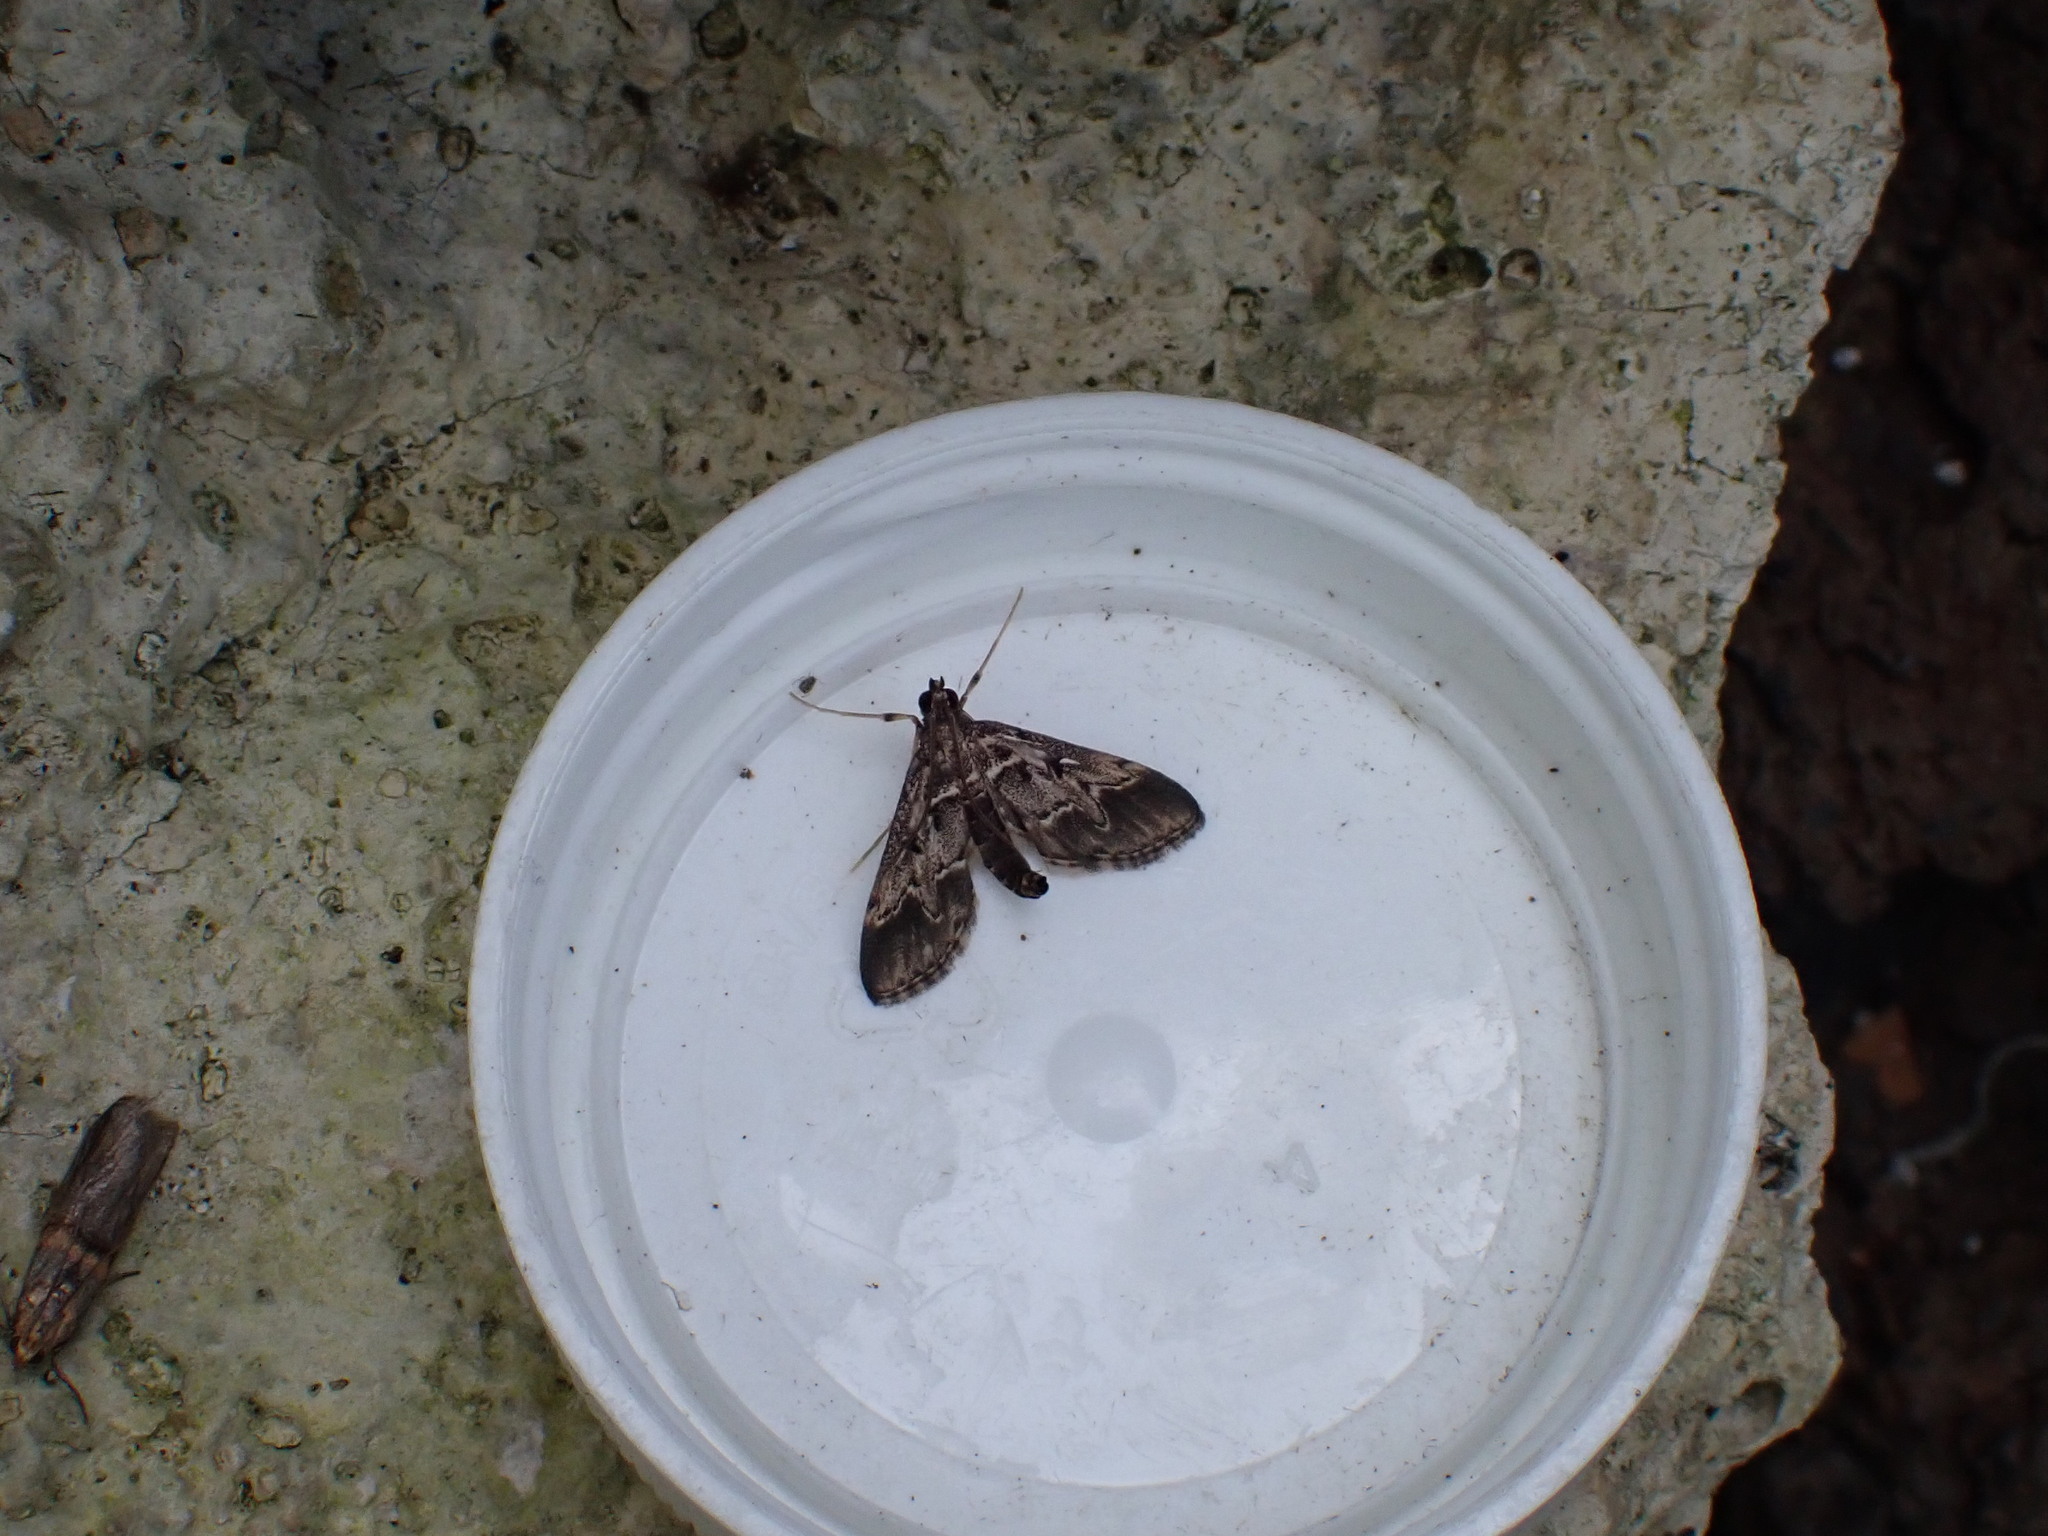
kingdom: Animalia
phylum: Arthropoda
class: Insecta
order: Lepidoptera
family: Crambidae
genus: Duponchelia
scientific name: Duponchelia fovealis
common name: Crambid moth
